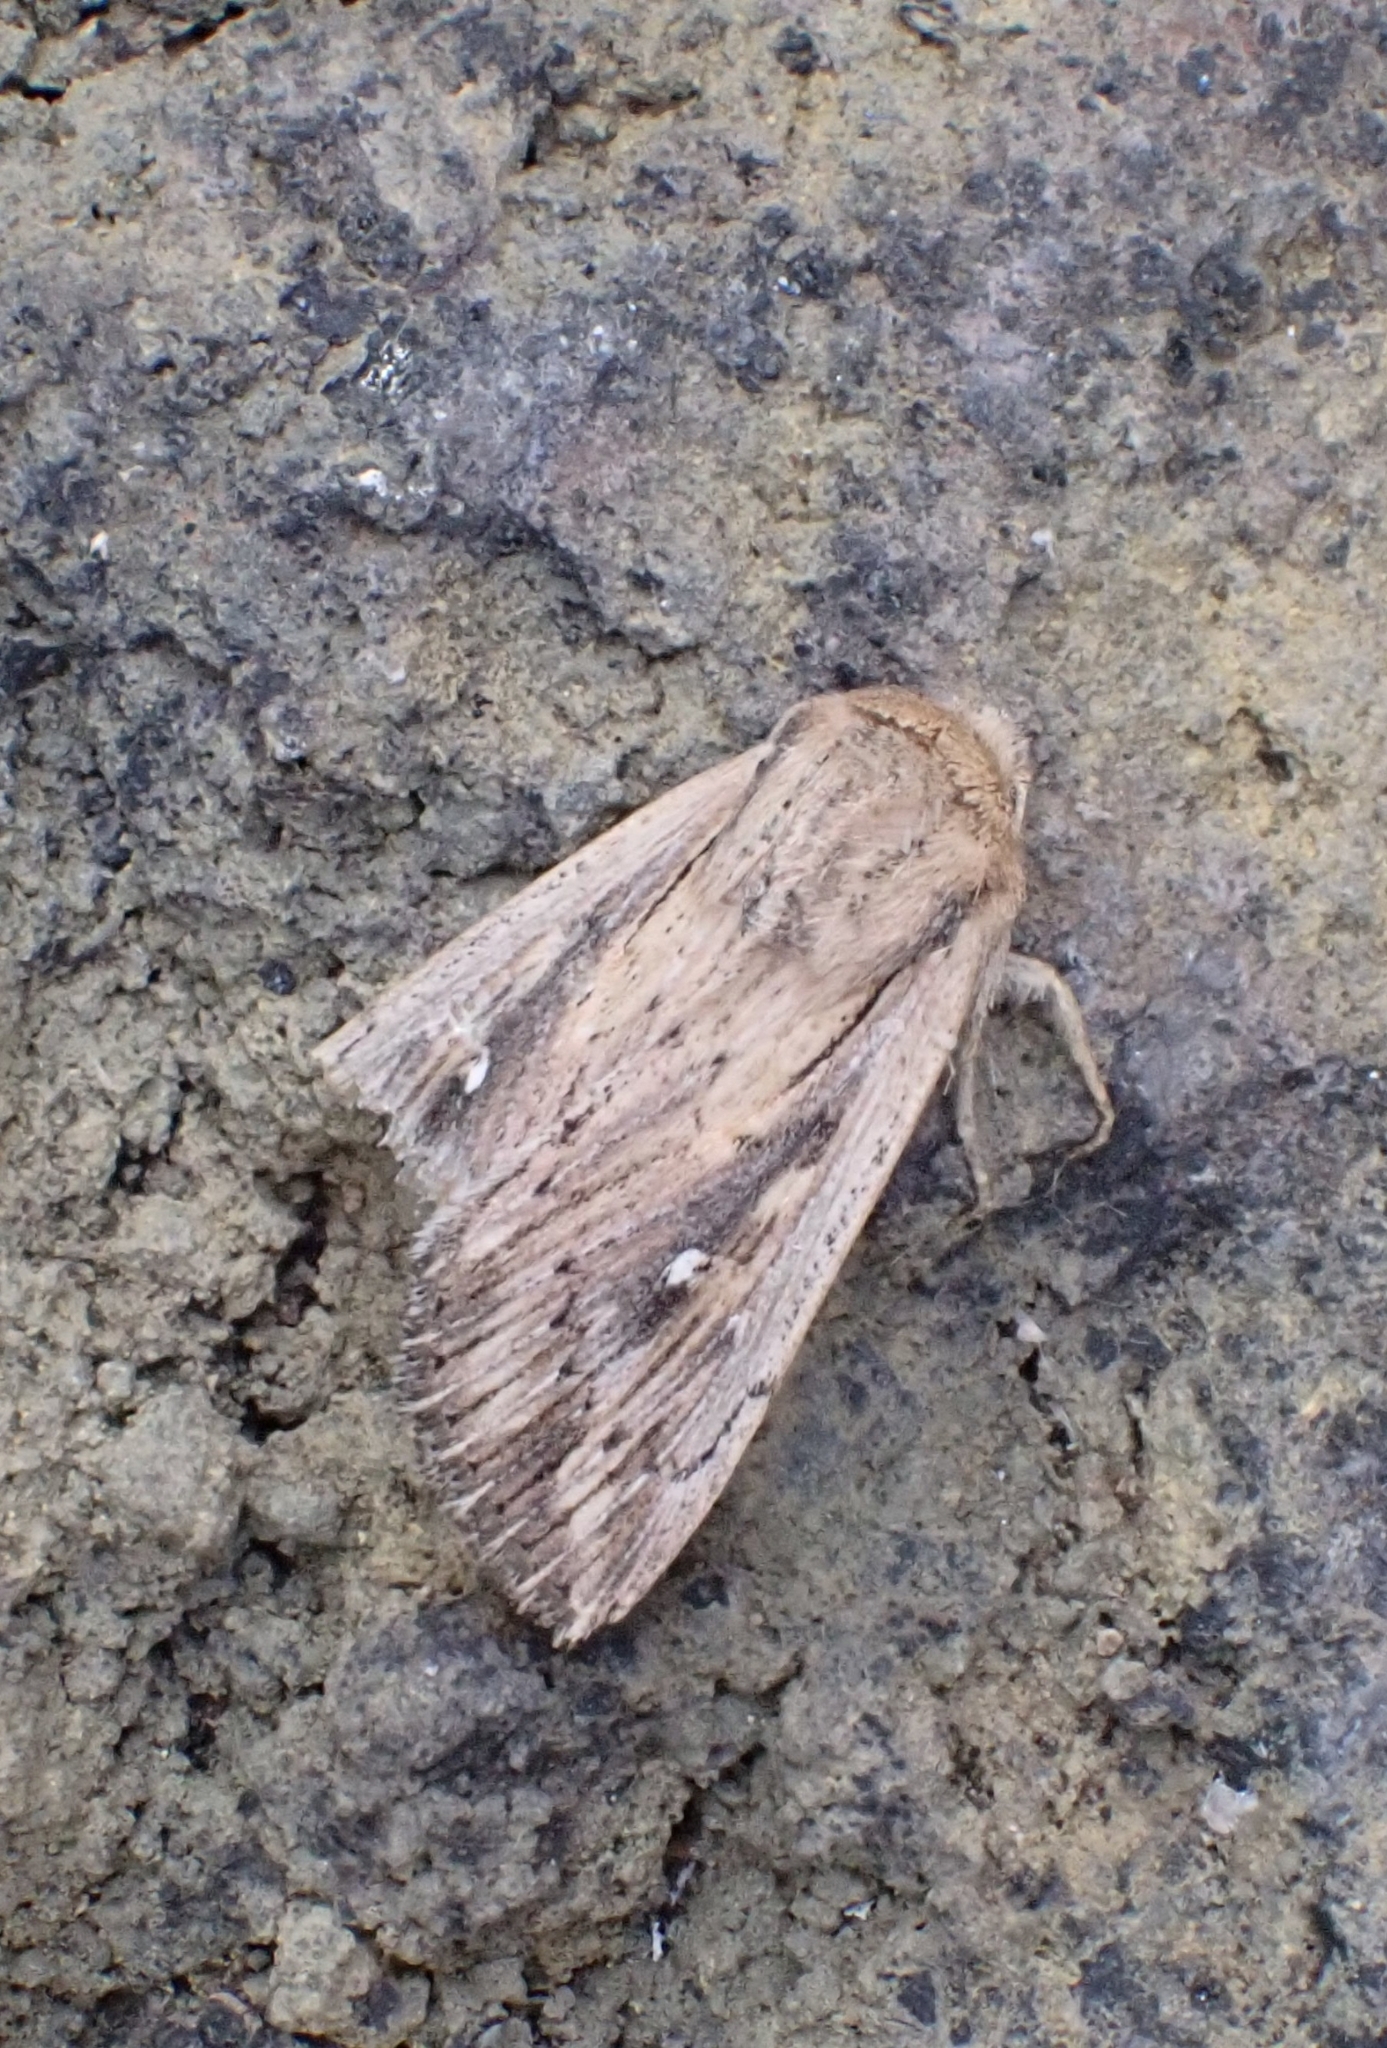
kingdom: Animalia
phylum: Arthropoda
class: Insecta
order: Lepidoptera
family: Noctuidae
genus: Leucania
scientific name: Leucania fortunata
